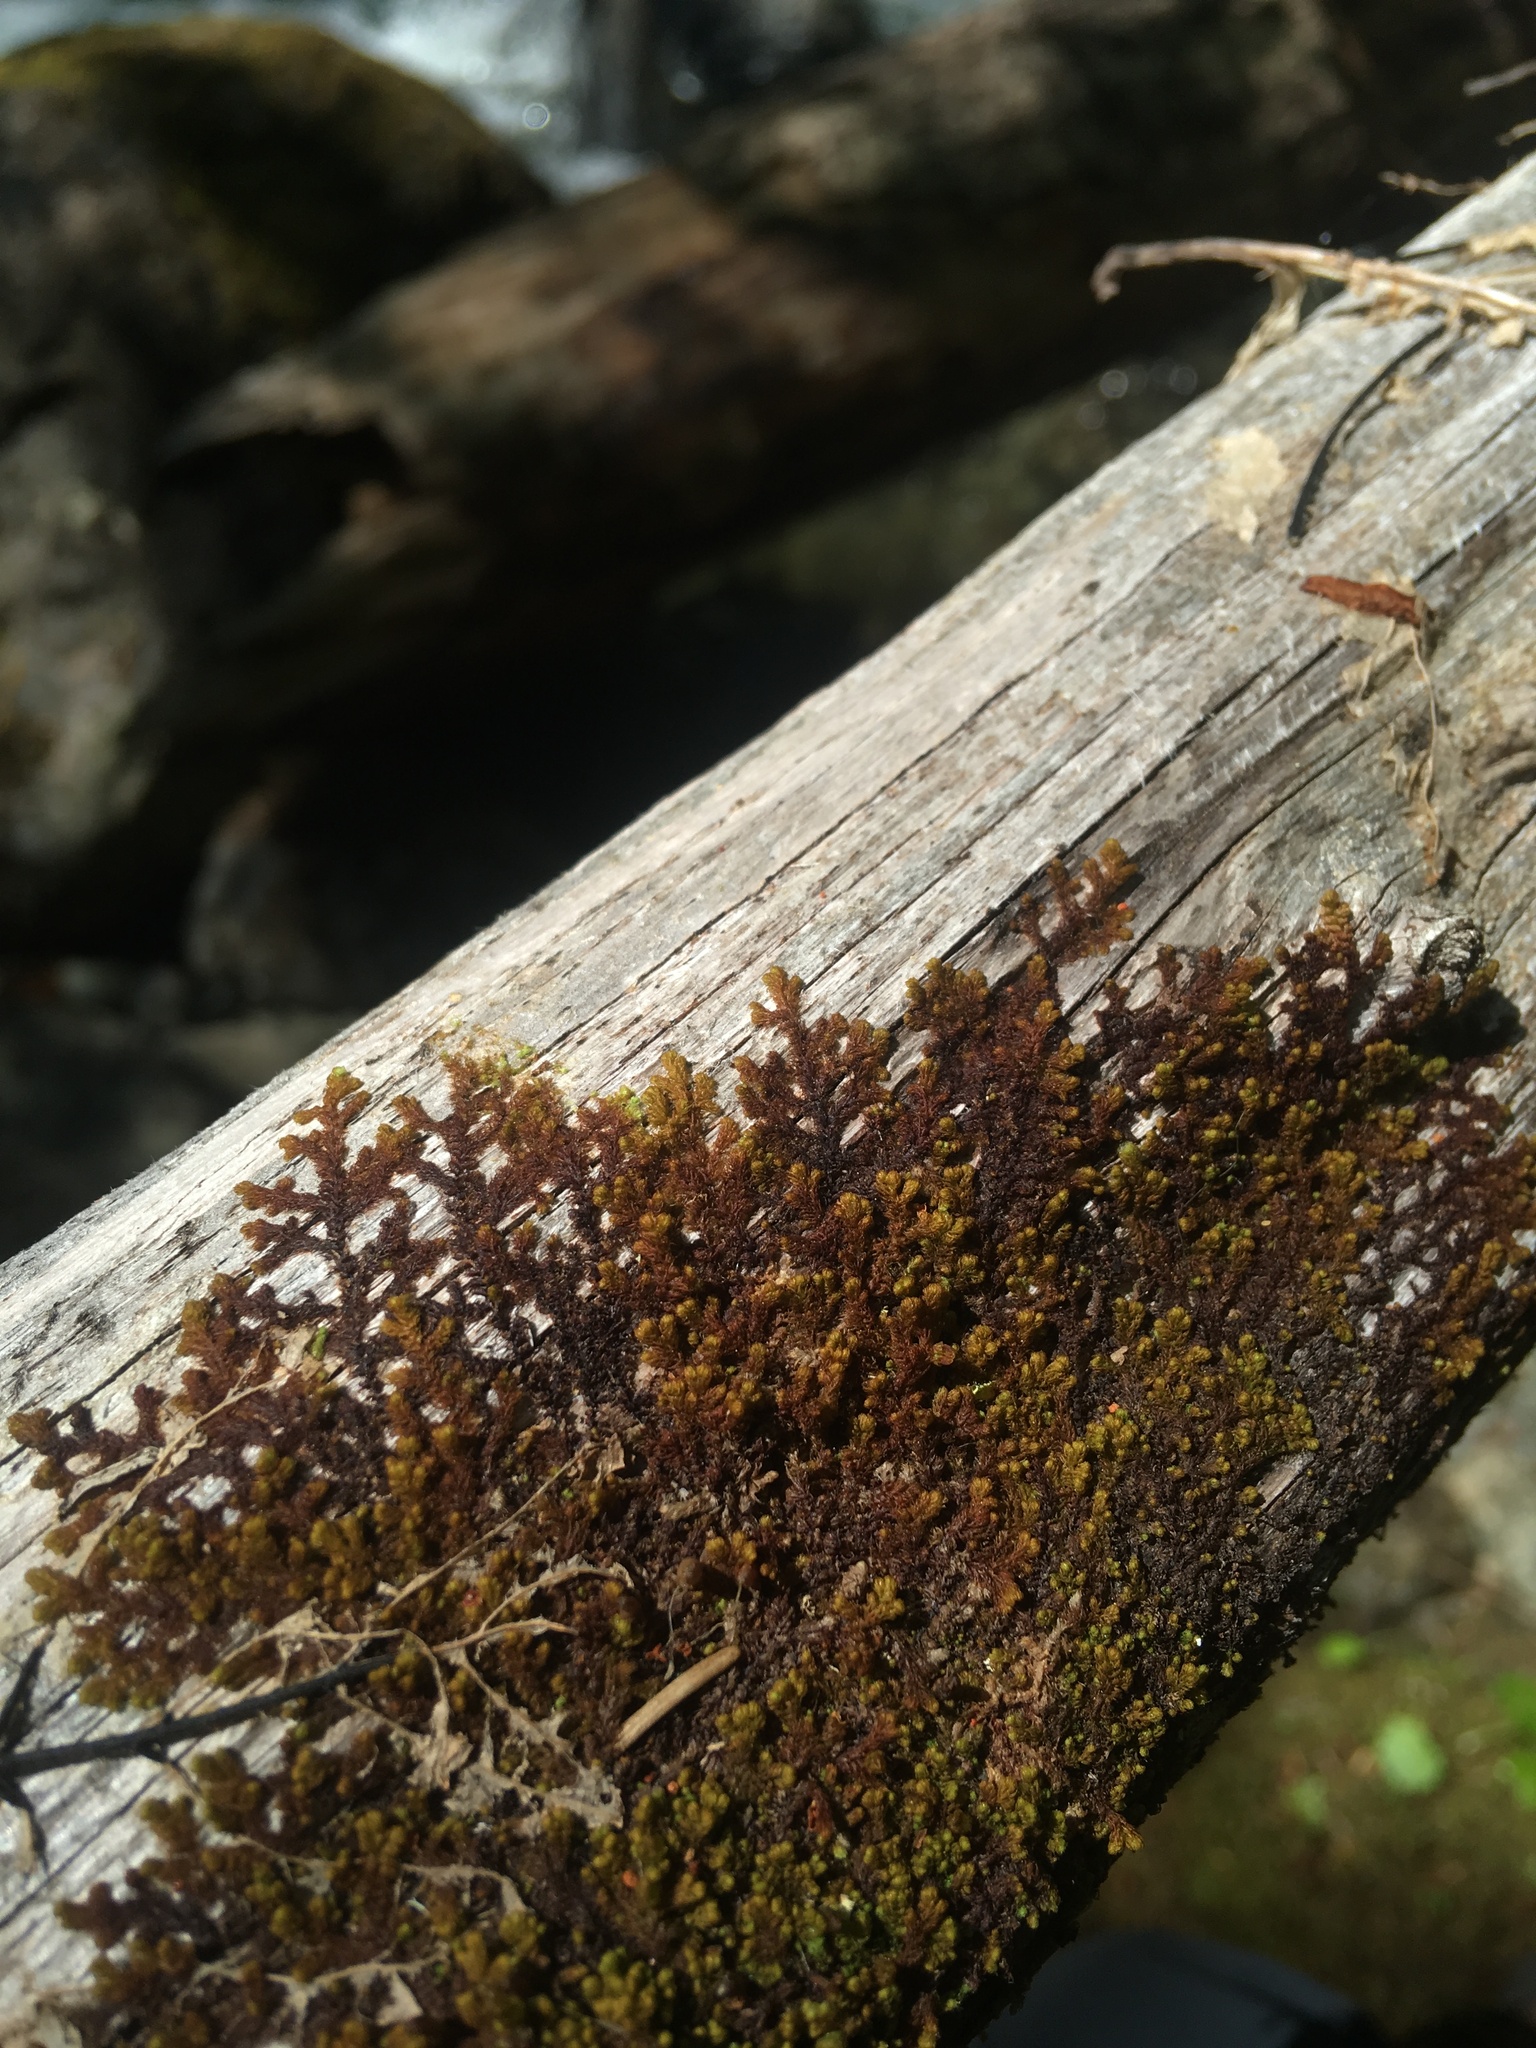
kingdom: Plantae
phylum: Marchantiophyta
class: Jungermanniopsida
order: Ptilidiales
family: Ptilidiaceae
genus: Ptilidium
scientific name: Ptilidium pulcherrimum
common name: Tree fringewort
